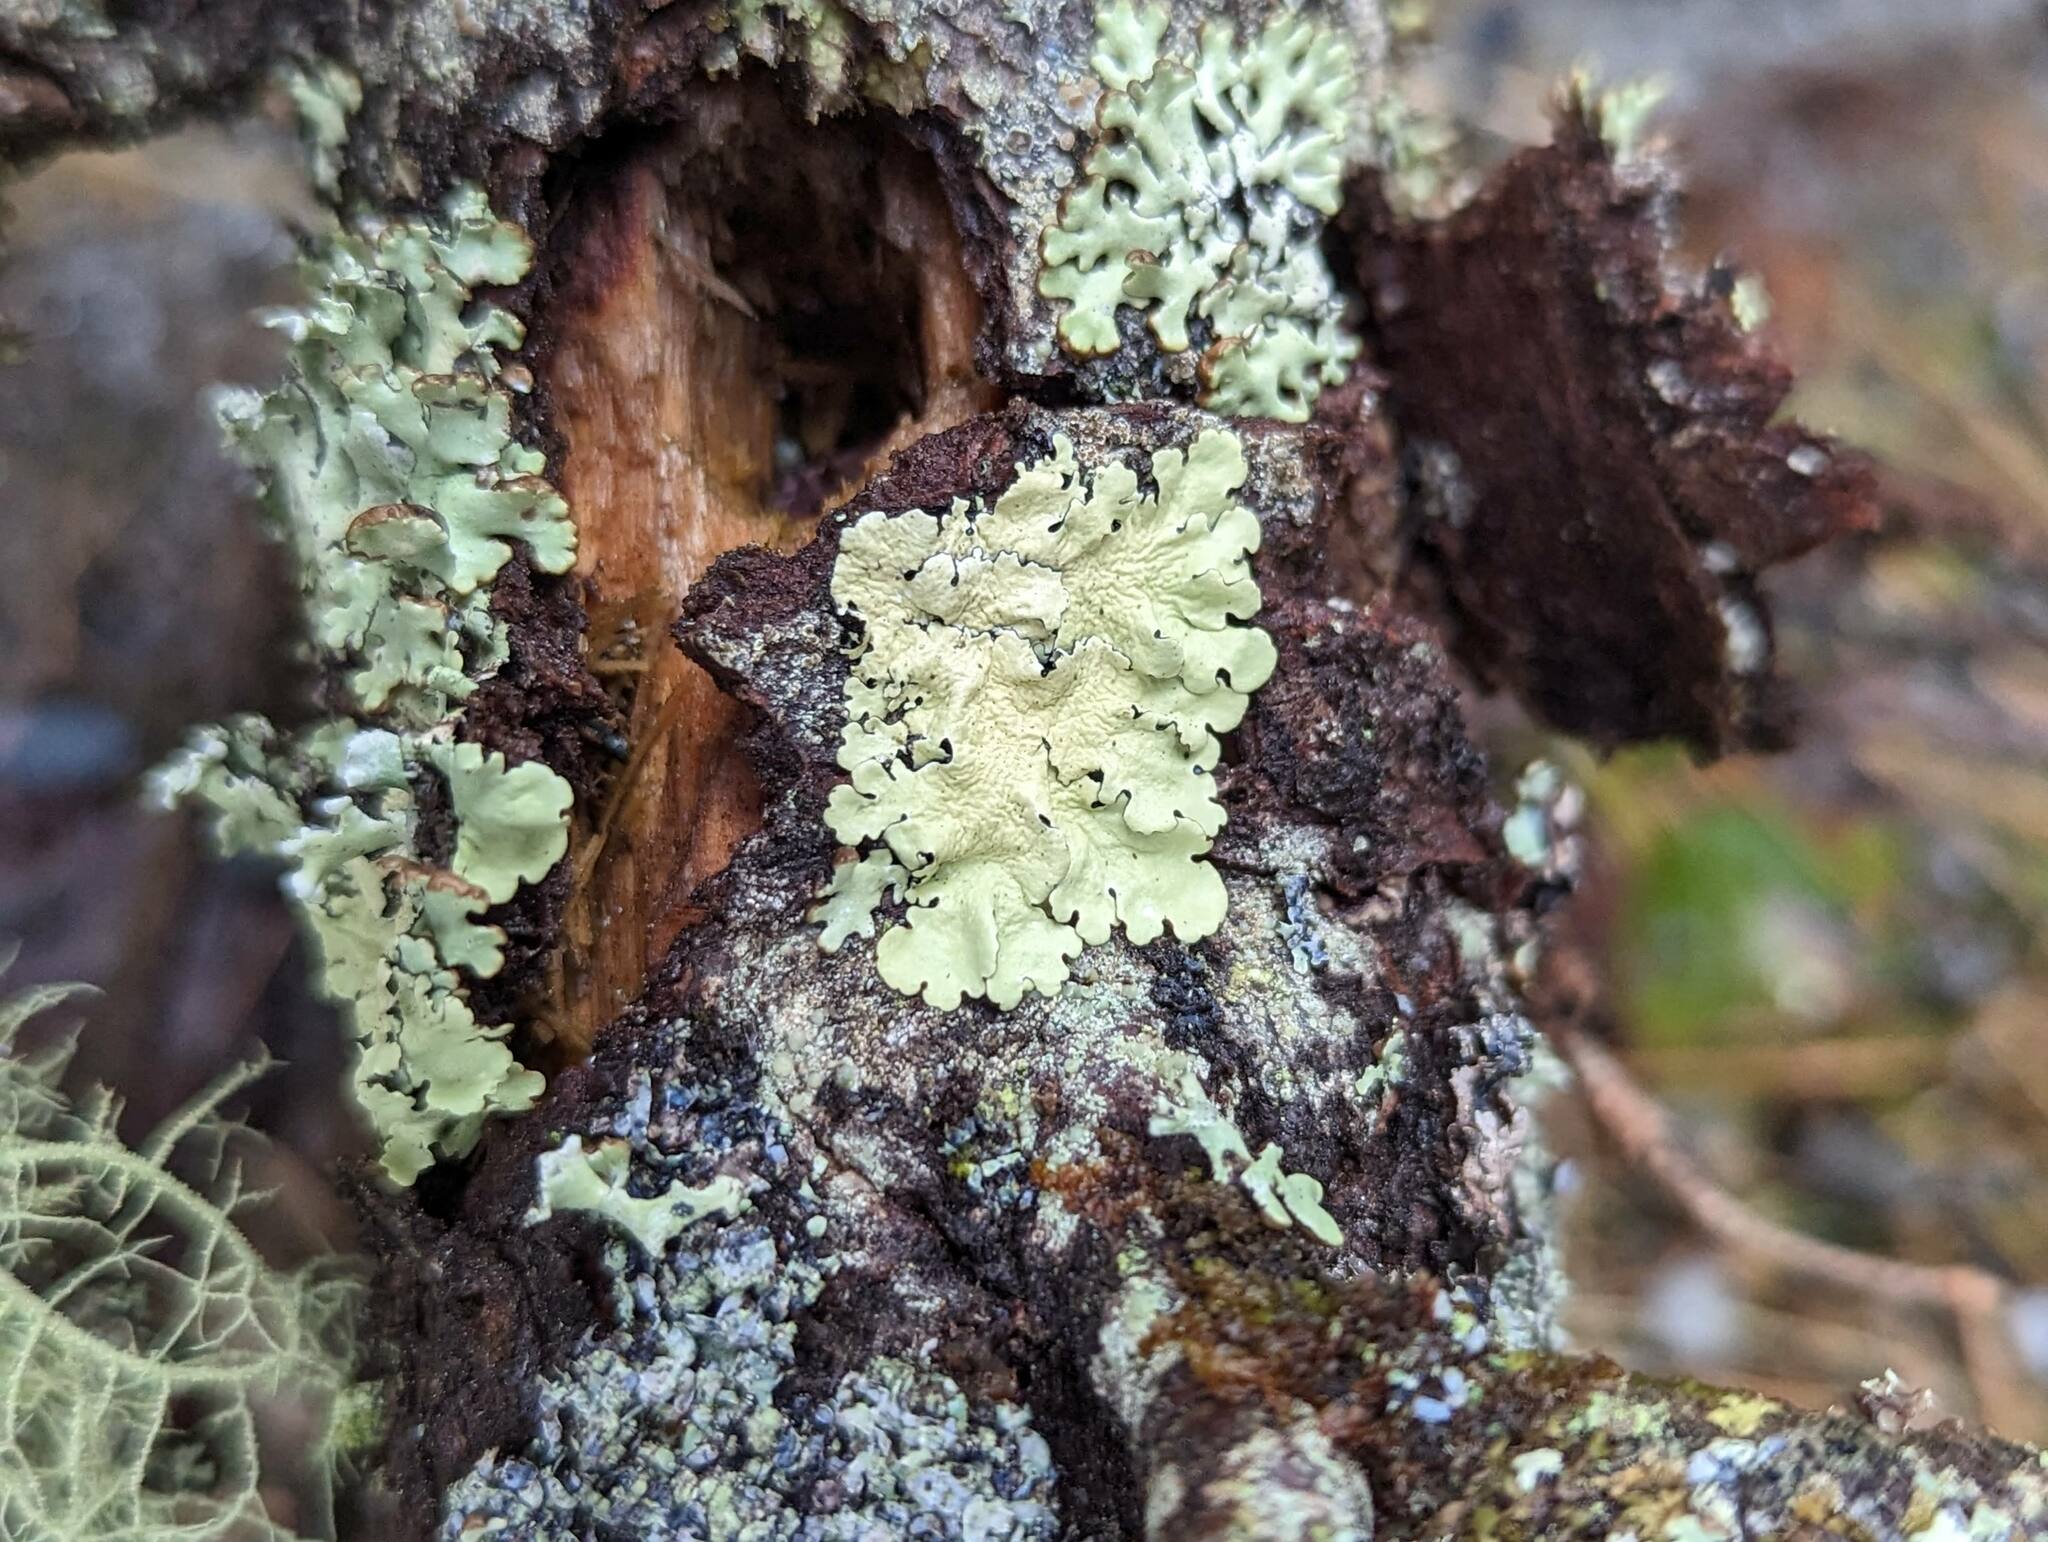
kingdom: Fungi
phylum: Ascomycota
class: Lecanoromycetes
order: Lecanorales
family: Parmeliaceae
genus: Flavoparmelia
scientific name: Flavoparmelia caperata
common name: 40-mile per hour lichen
